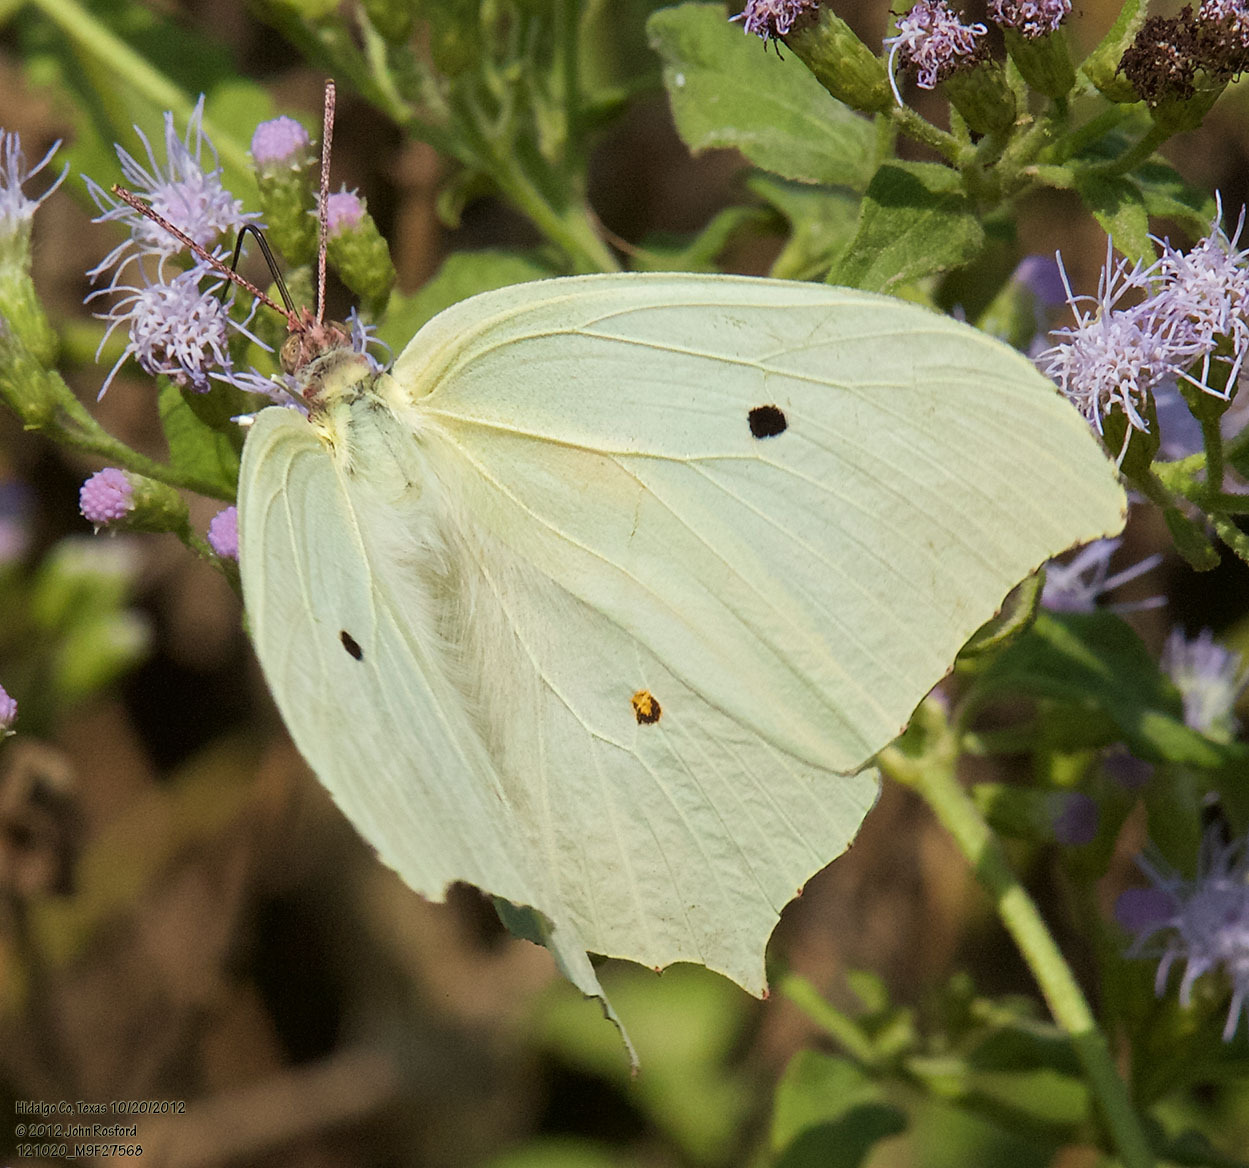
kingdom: Animalia
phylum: Arthropoda
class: Insecta
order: Lepidoptera
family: Pieridae
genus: Anteos
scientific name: Anteos maerula
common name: Angled sulphur
